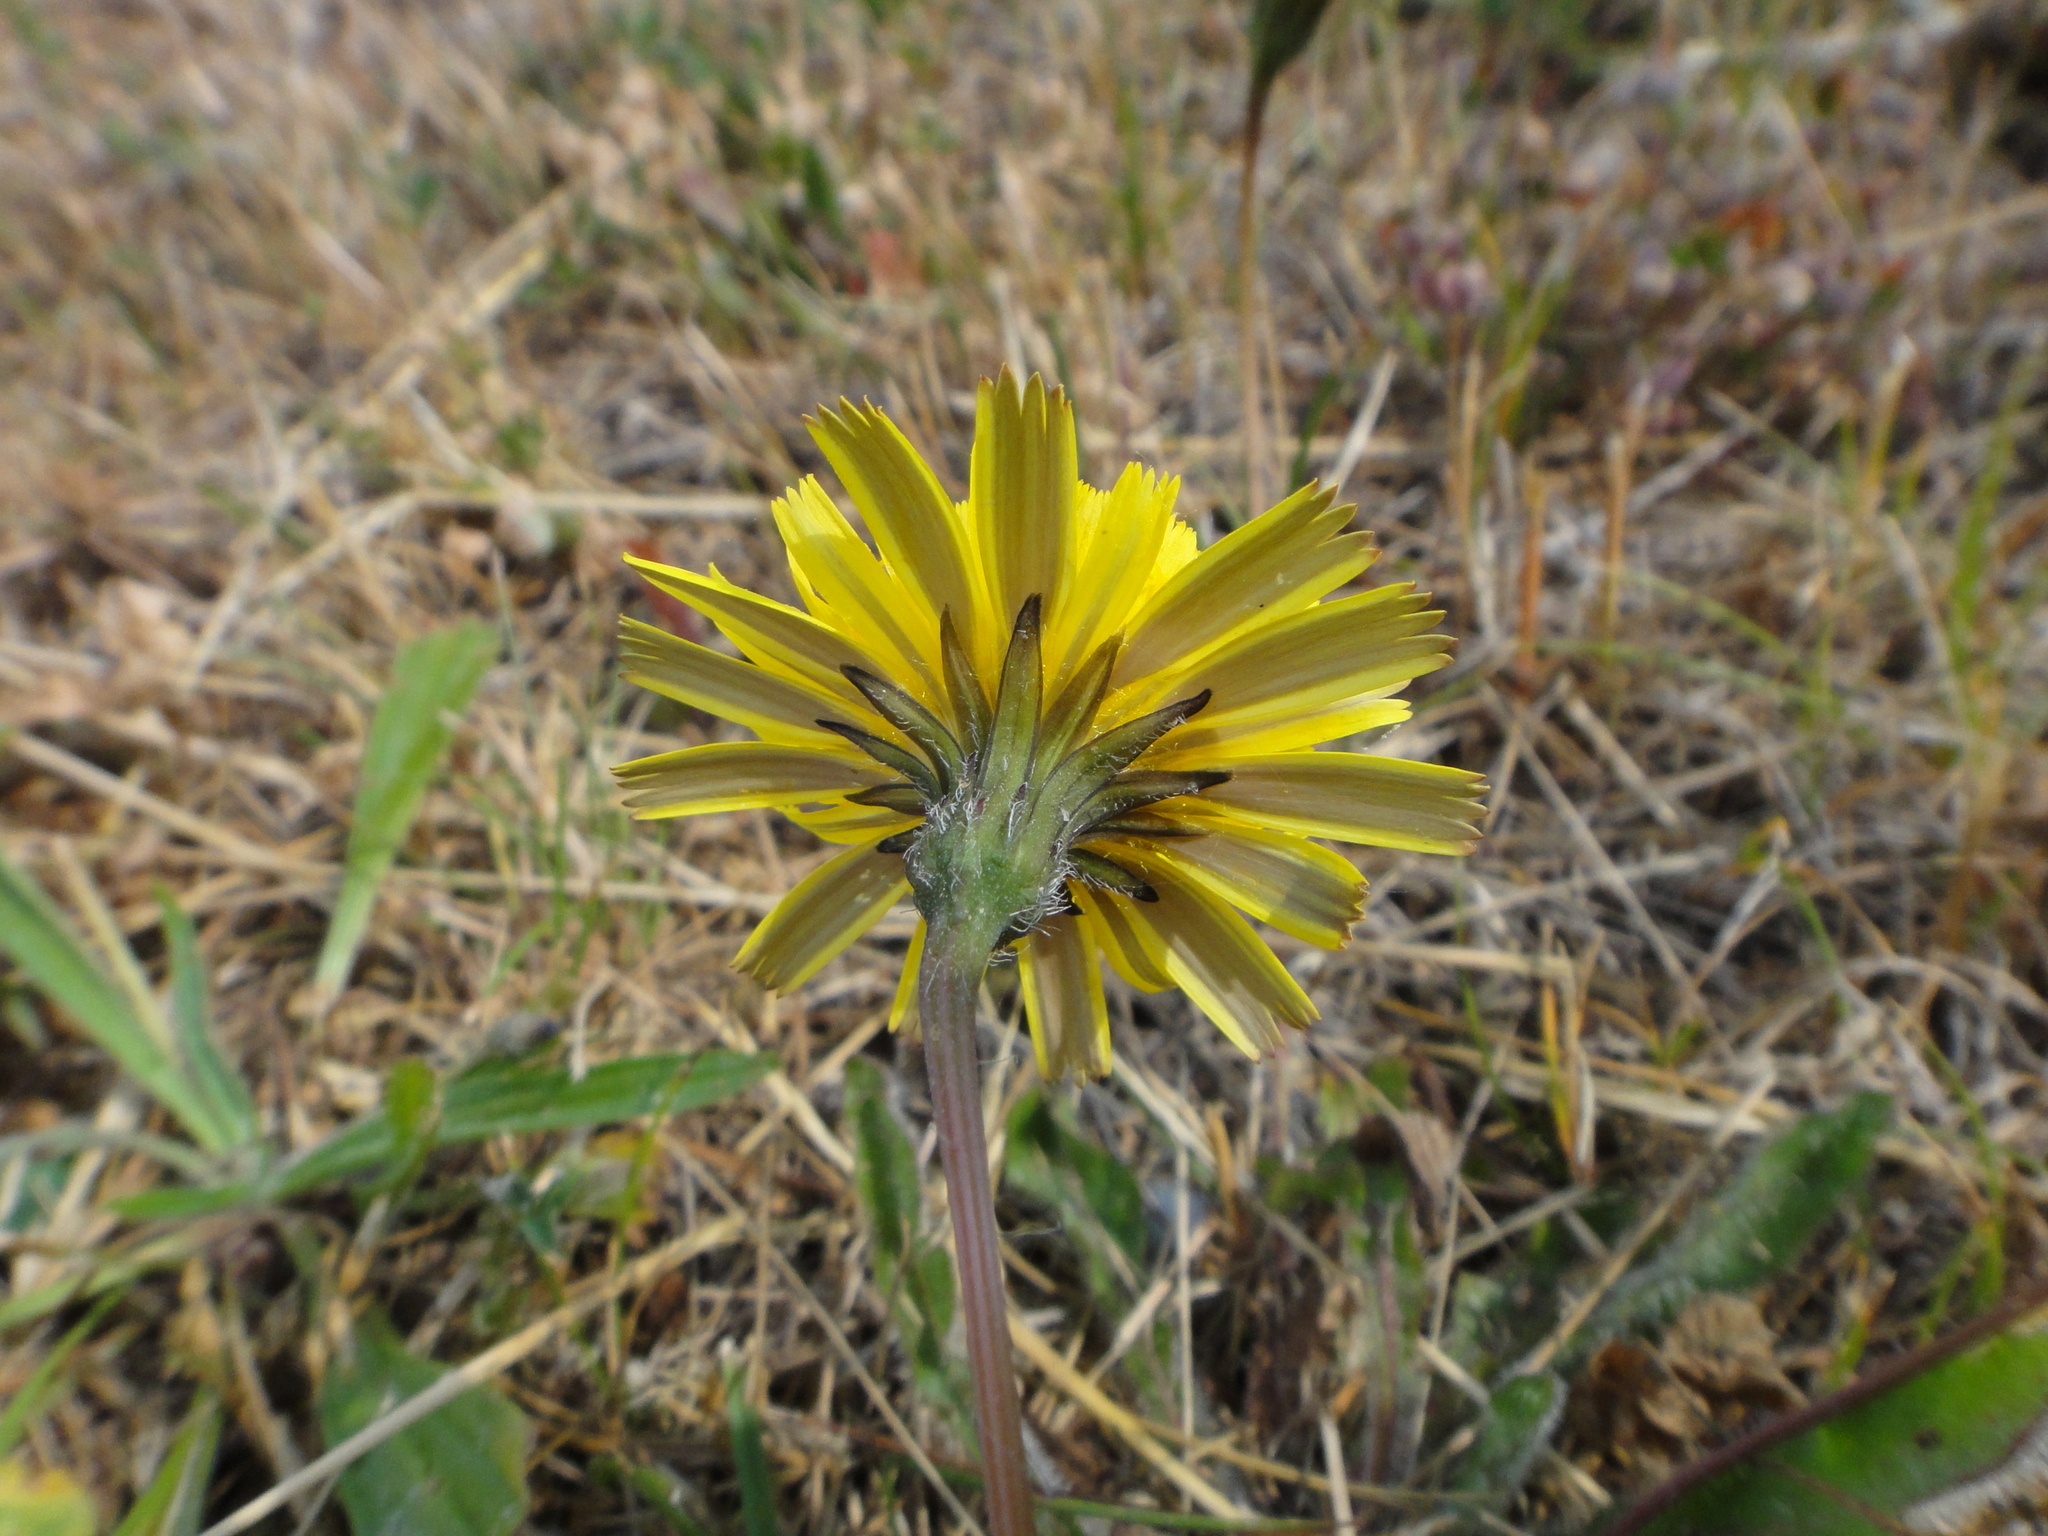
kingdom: Plantae
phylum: Tracheophyta
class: Magnoliopsida
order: Asterales
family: Asteraceae
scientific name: Asteraceae
